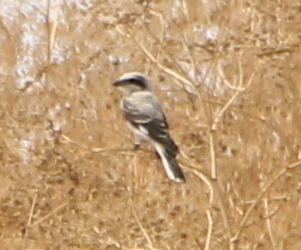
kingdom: Animalia
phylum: Chordata
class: Aves
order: Passeriformes
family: Laniidae
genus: Lanius
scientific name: Lanius minor
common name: Lesser grey shrike
